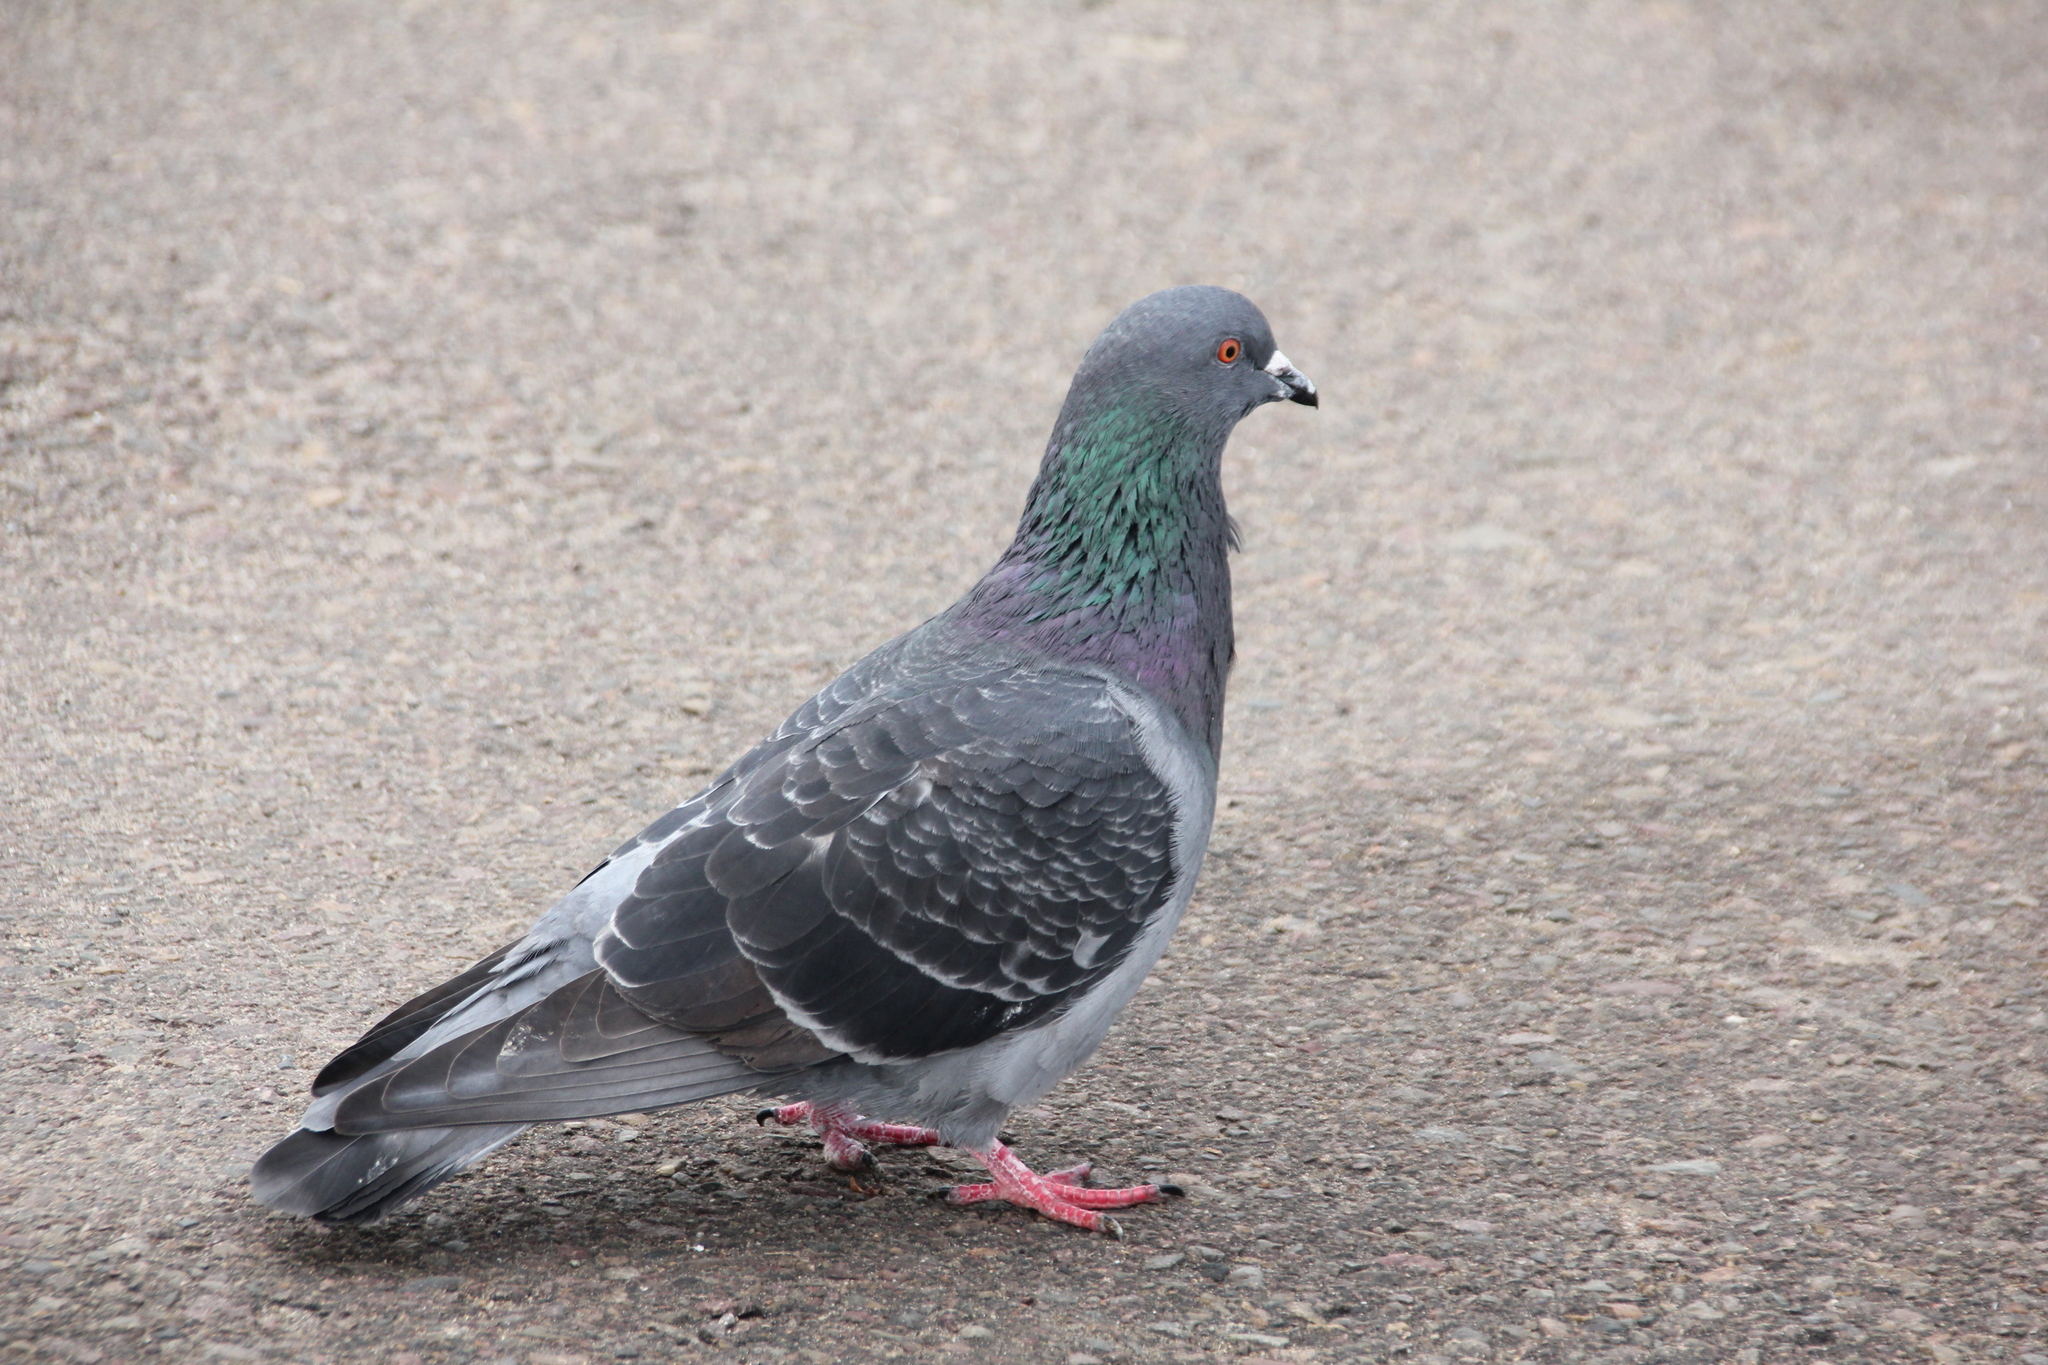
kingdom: Animalia
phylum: Chordata
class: Aves
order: Columbiformes
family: Columbidae
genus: Columba
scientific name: Columba livia
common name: Rock pigeon
